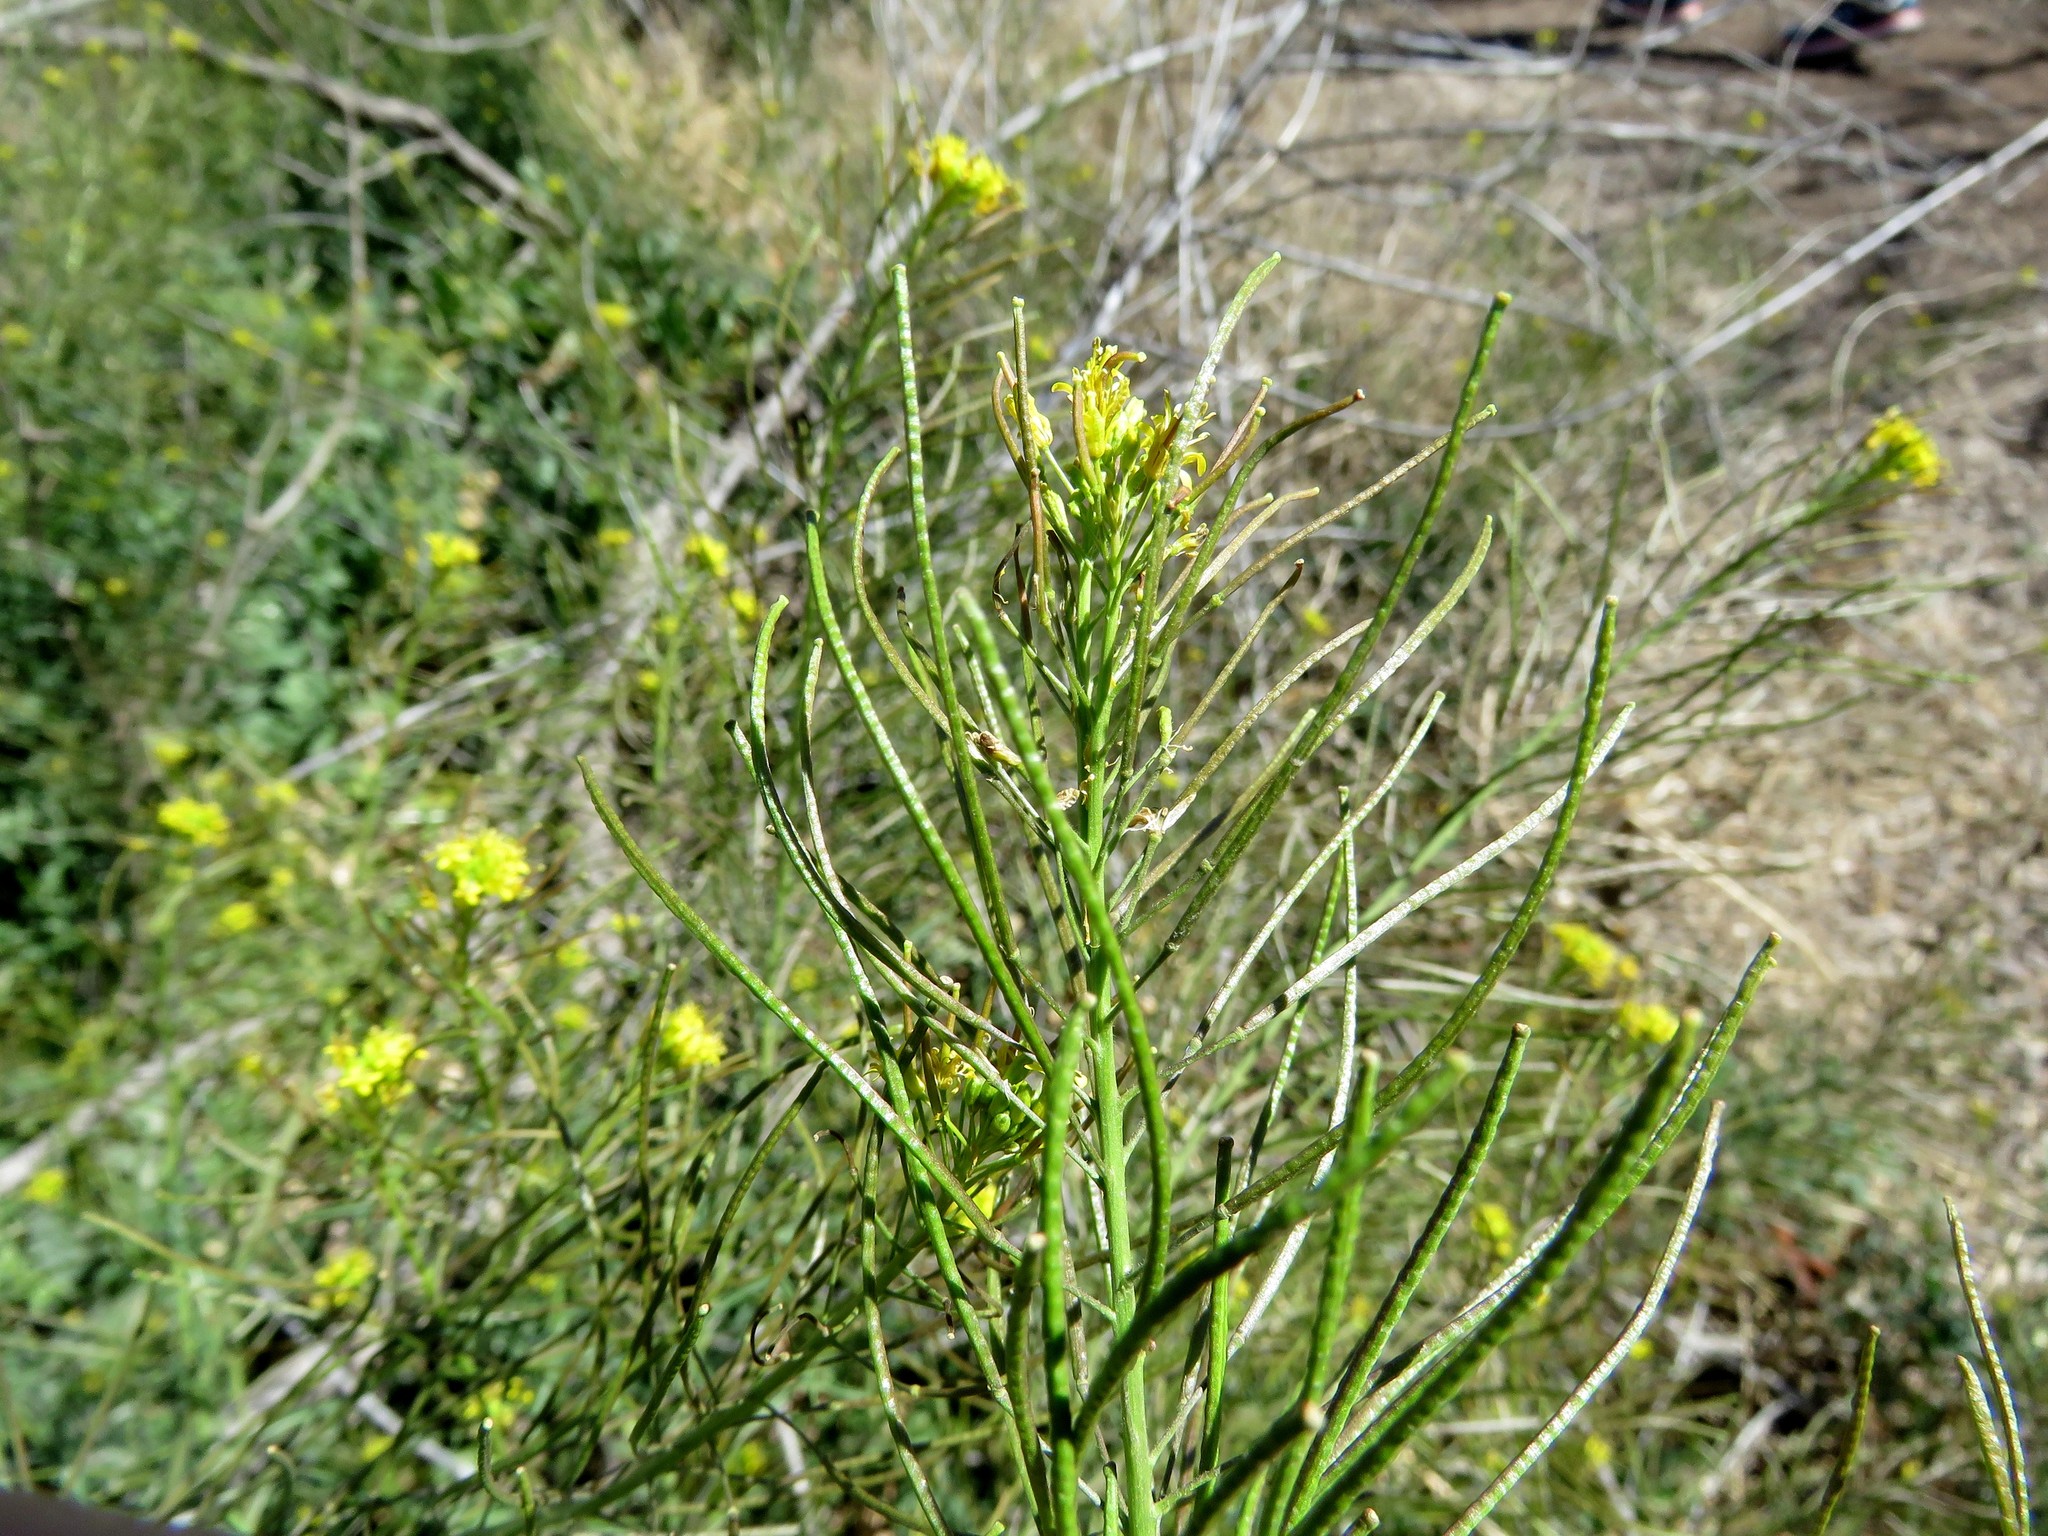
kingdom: Plantae
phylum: Tracheophyta
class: Magnoliopsida
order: Brassicales
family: Brassicaceae
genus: Sisymbrium
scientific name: Sisymbrium irio
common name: London rocket
